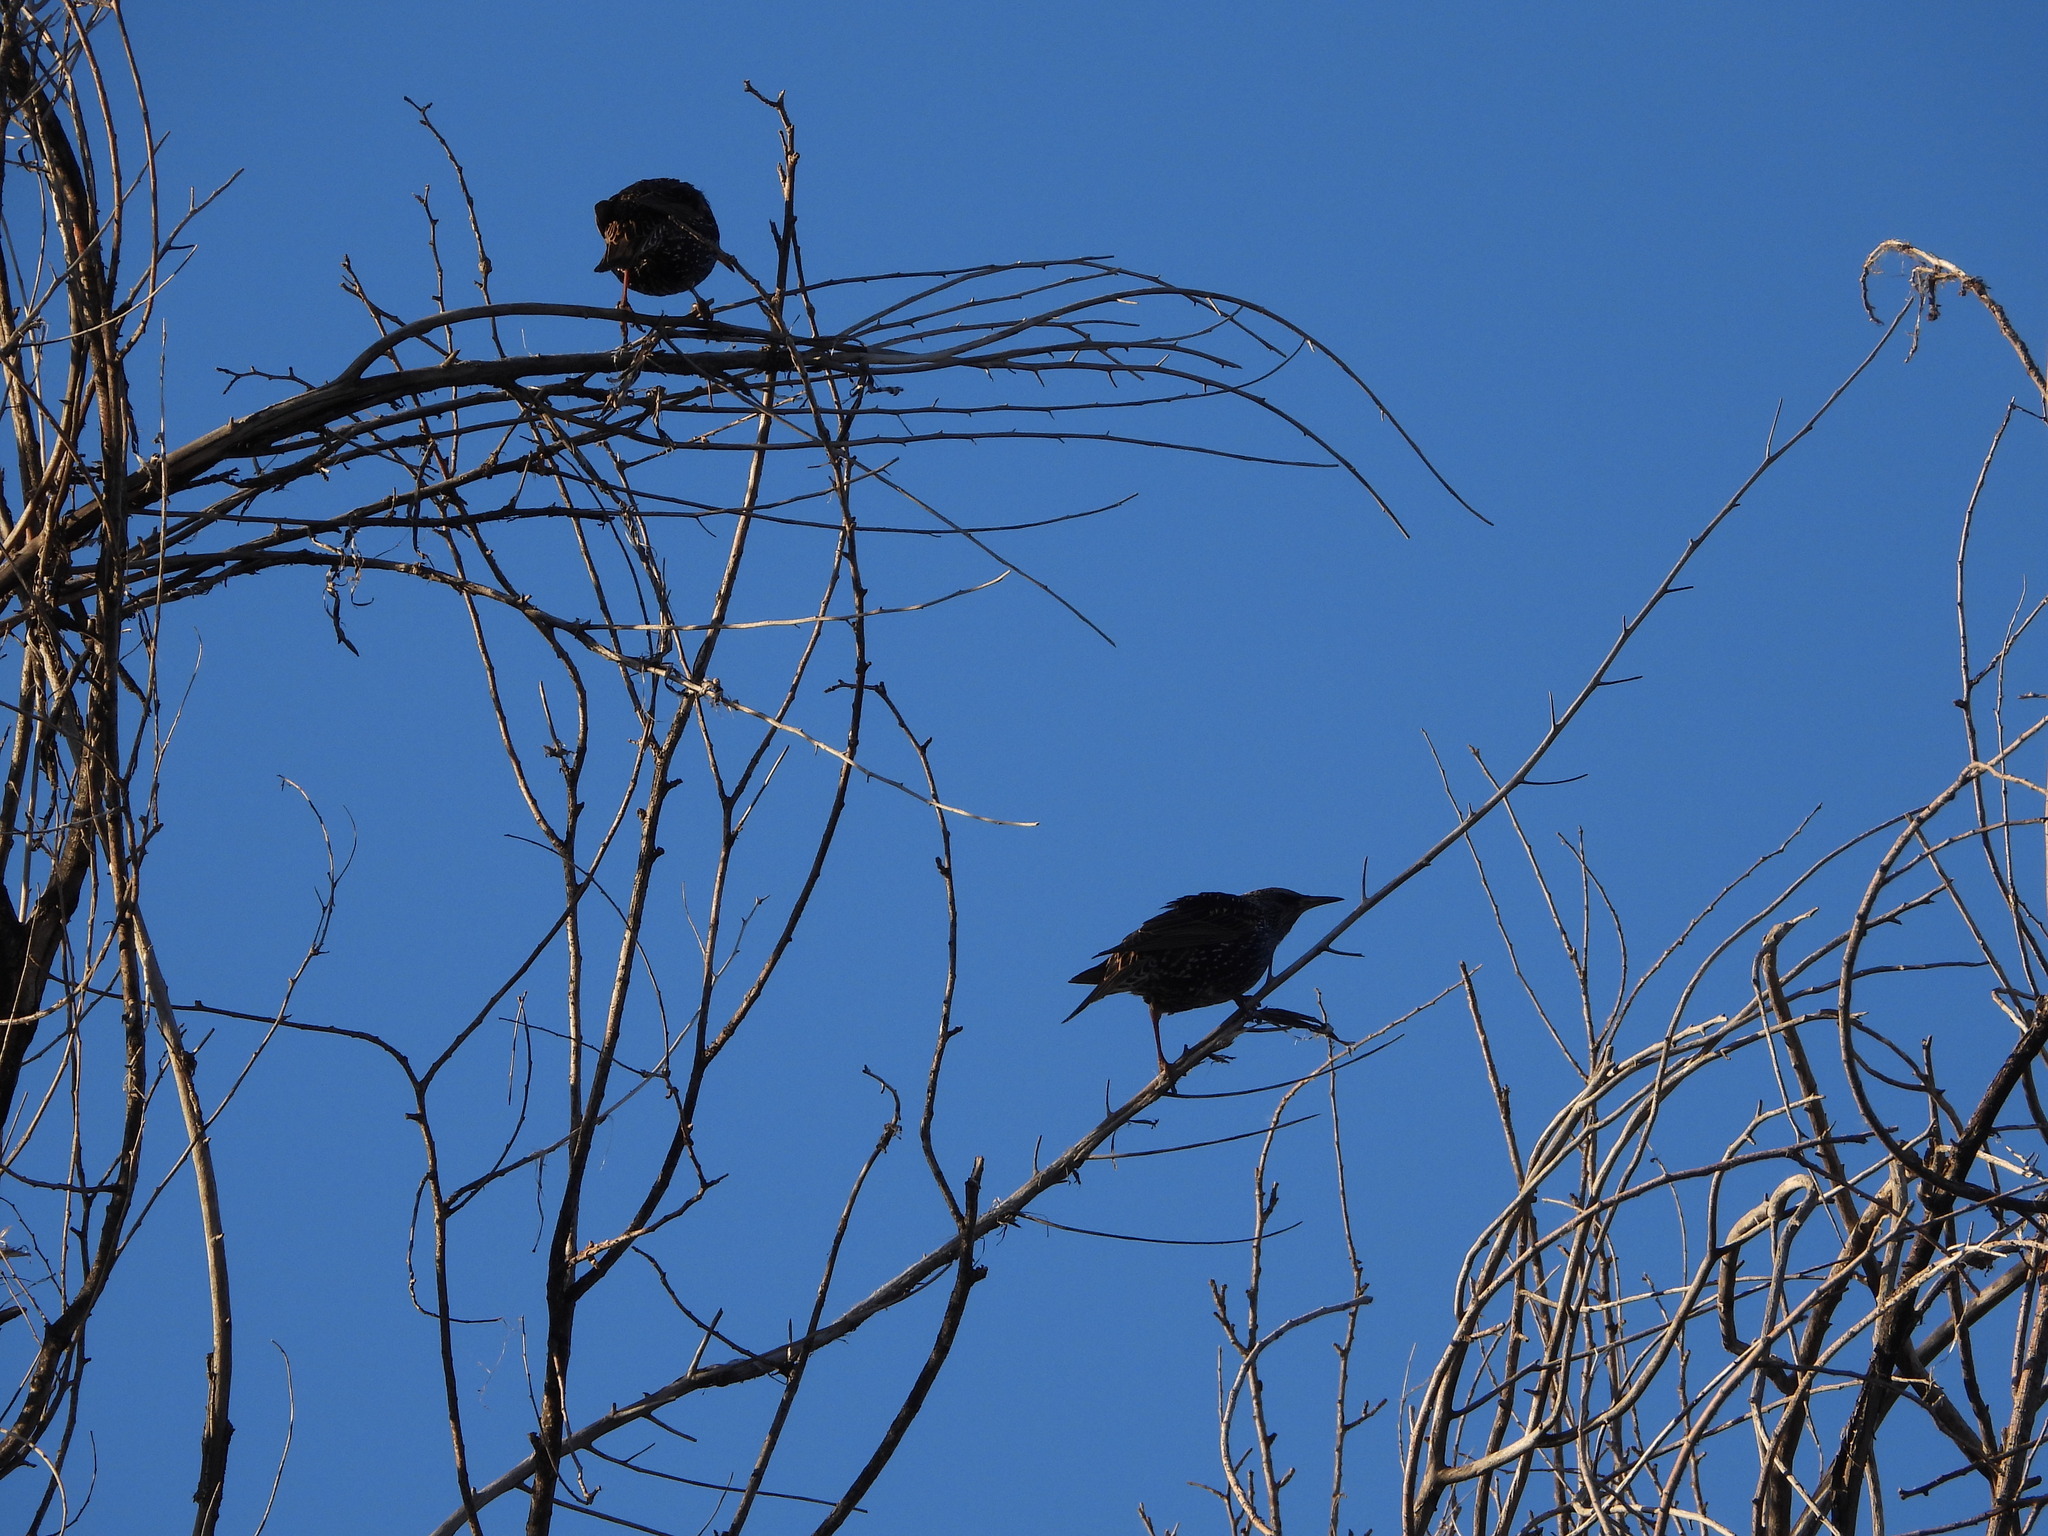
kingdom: Animalia
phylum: Chordata
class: Aves
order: Passeriformes
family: Sturnidae
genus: Sturnus
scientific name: Sturnus vulgaris
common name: Common starling
